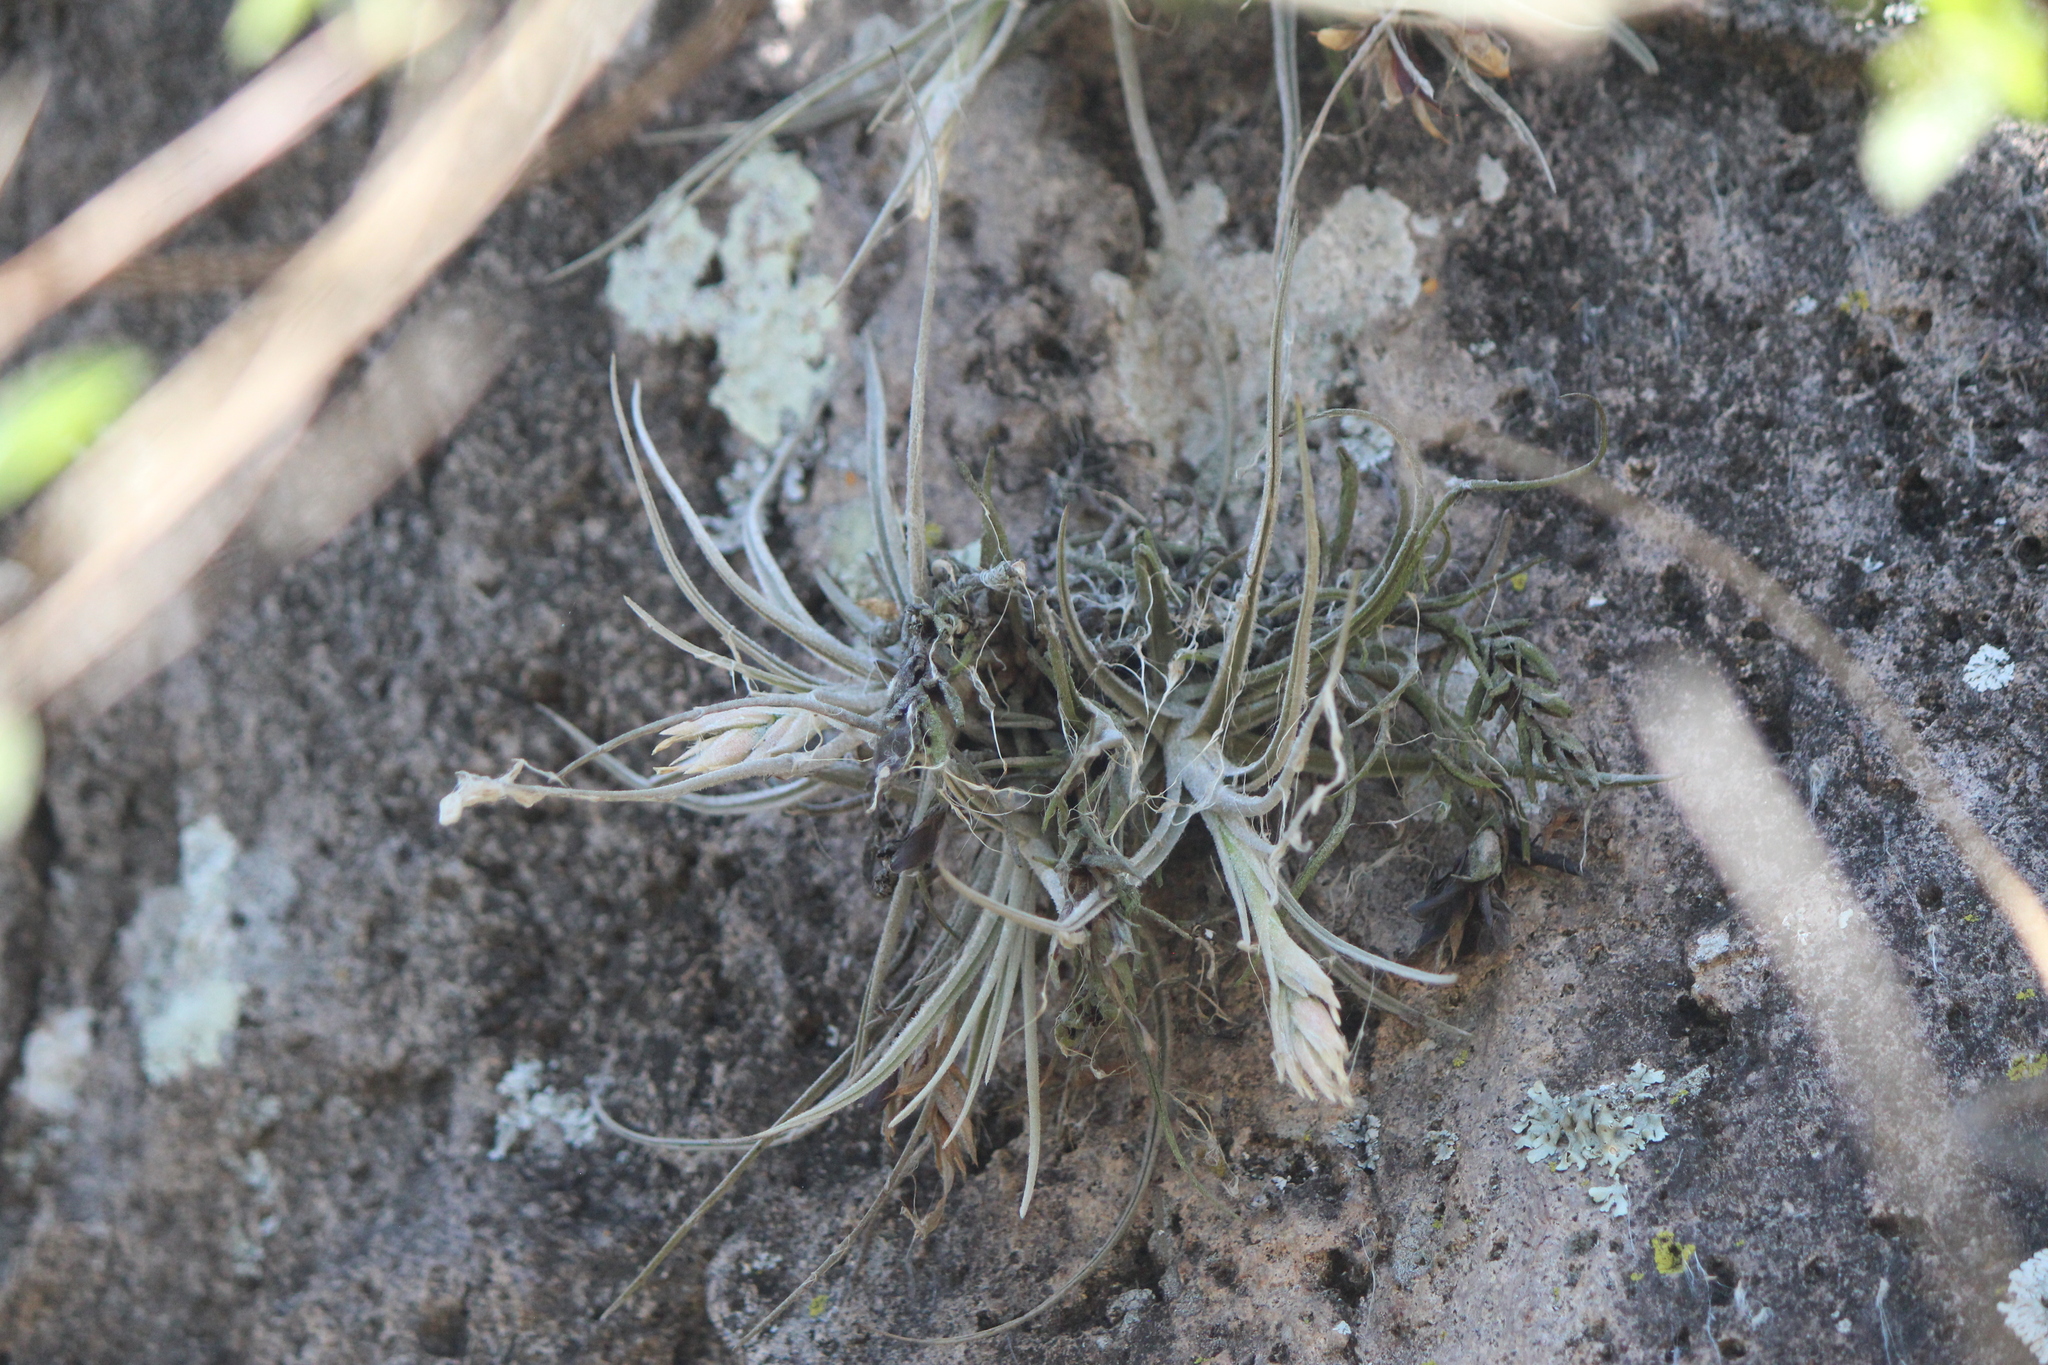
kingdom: Plantae
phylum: Tracheophyta
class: Liliopsida
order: Poales
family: Bromeliaceae
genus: Tillandsia
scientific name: Tillandsia lepidosepala
